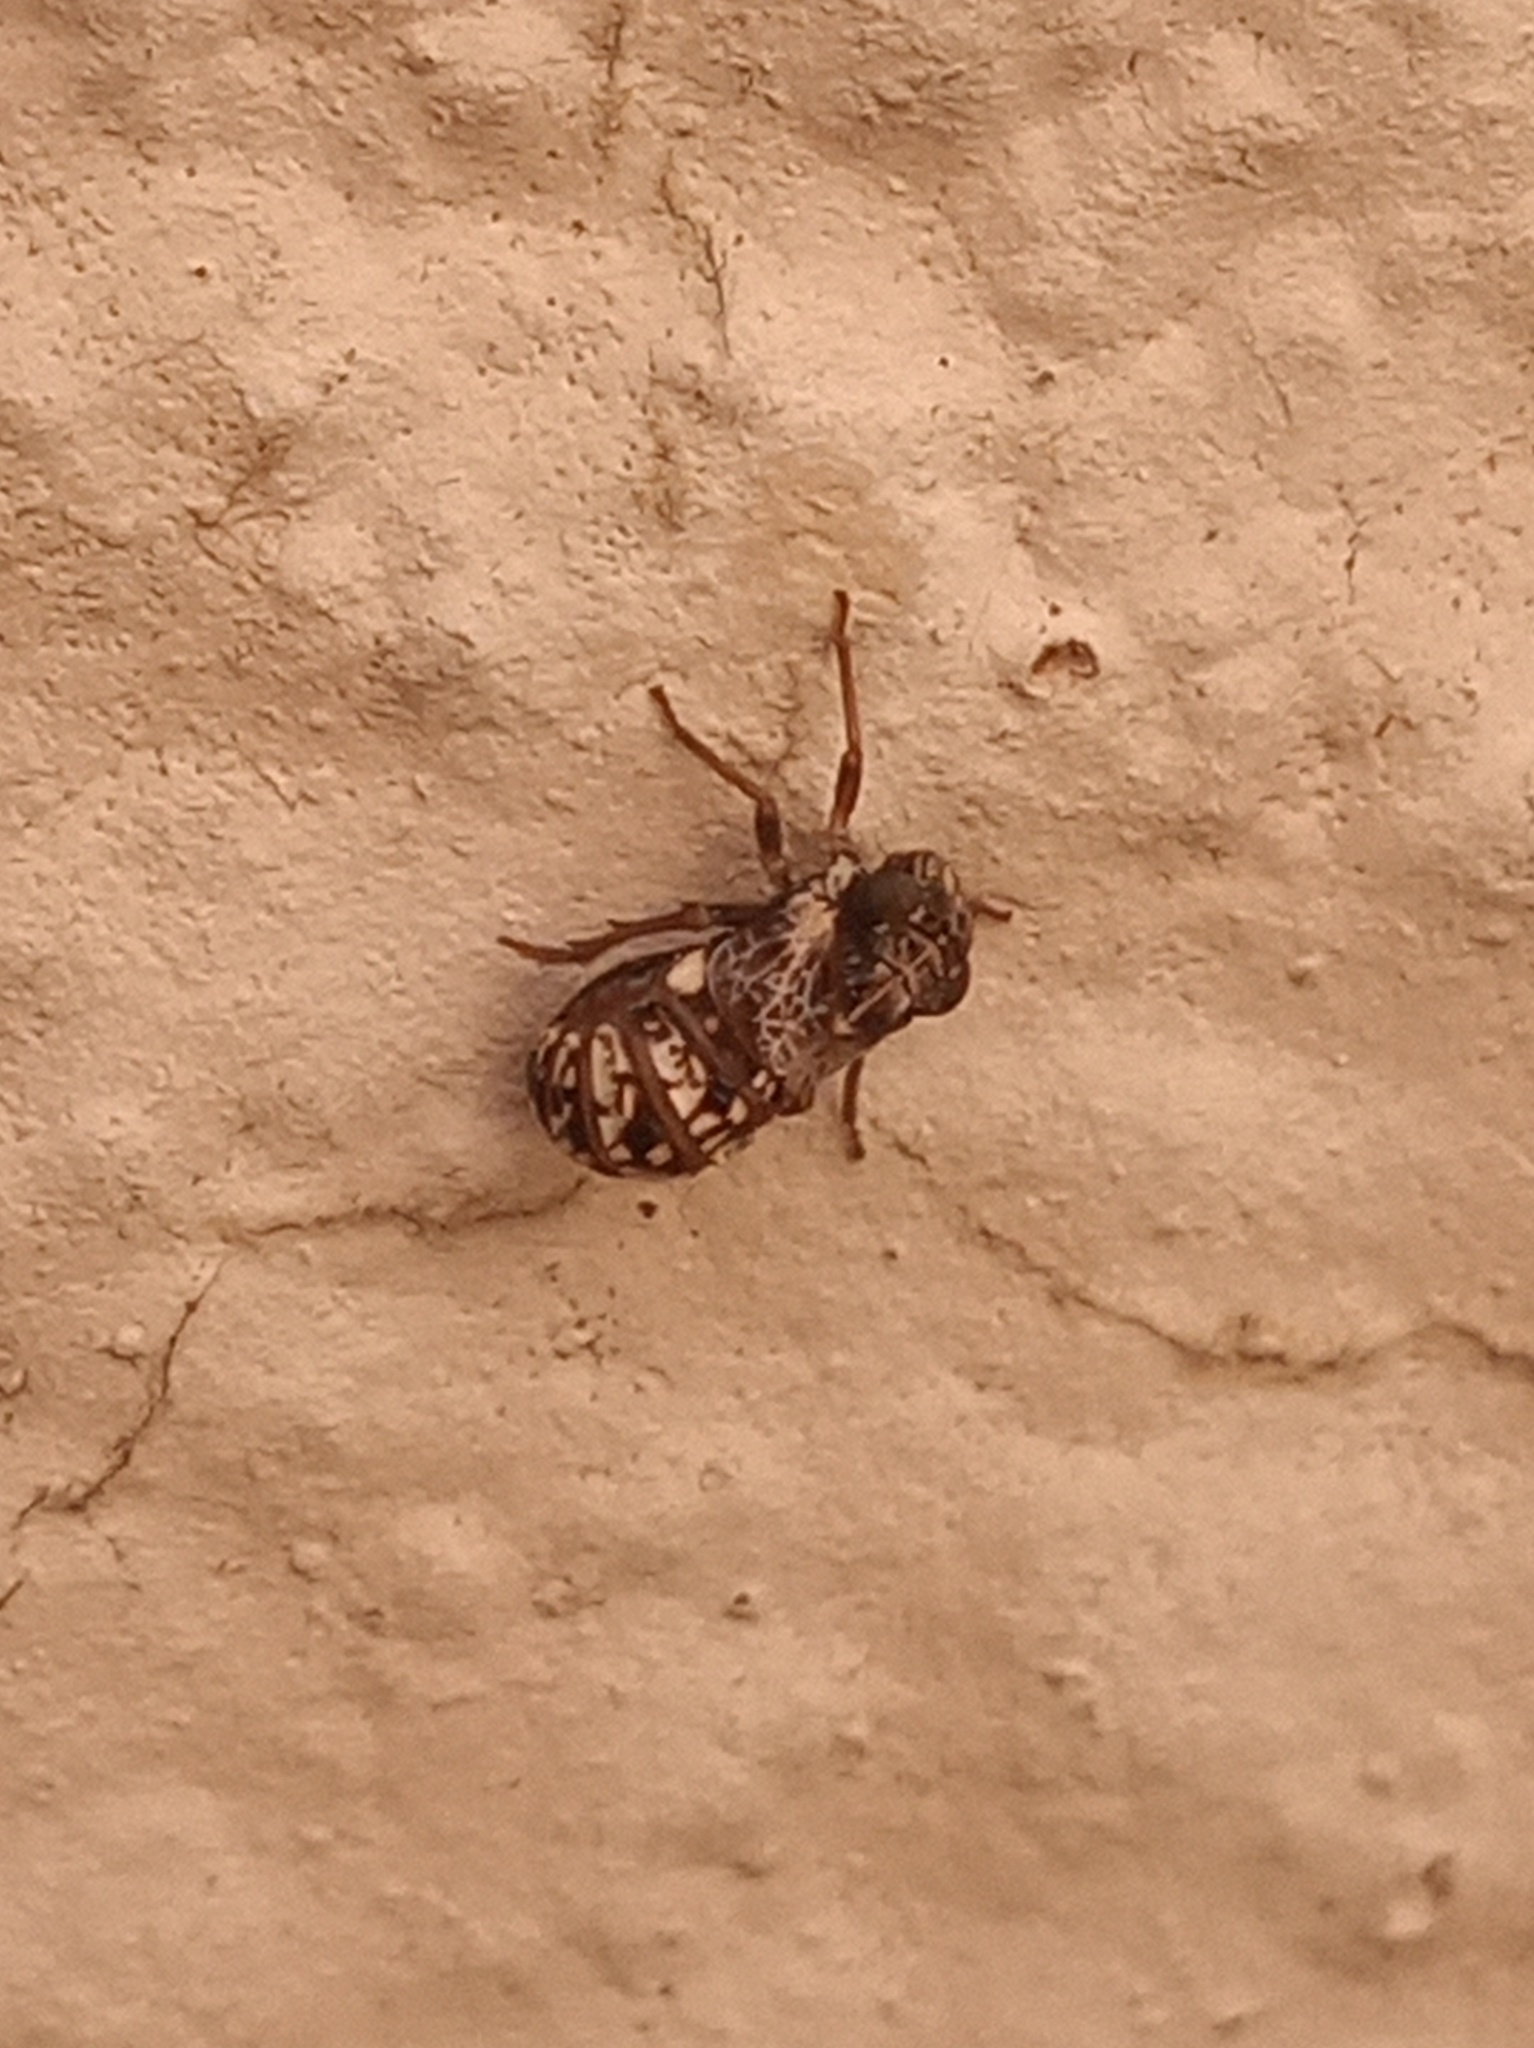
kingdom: Animalia
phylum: Arthropoda
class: Insecta
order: Hemiptera
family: Caliscelidae
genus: Bruchomorpha
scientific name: Bruchomorpha decorata
